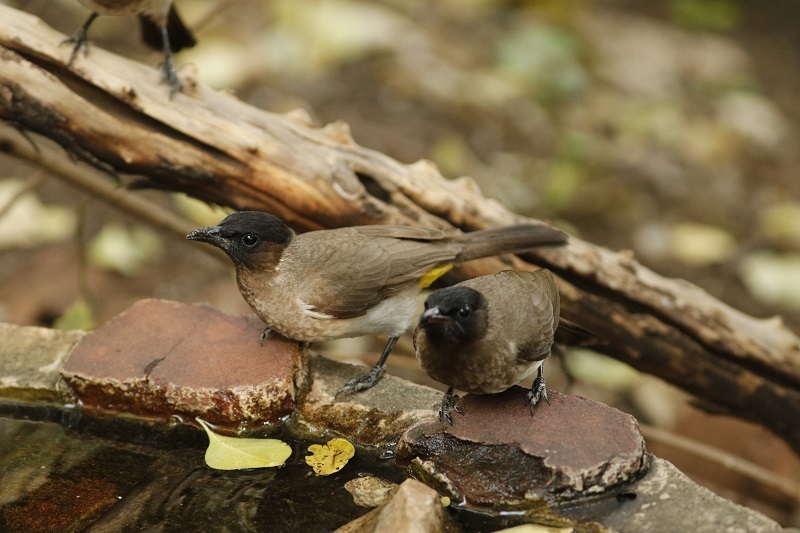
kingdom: Animalia
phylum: Chordata
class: Aves
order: Passeriformes
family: Pycnonotidae
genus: Pycnonotus
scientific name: Pycnonotus barbatus
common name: Common bulbul
